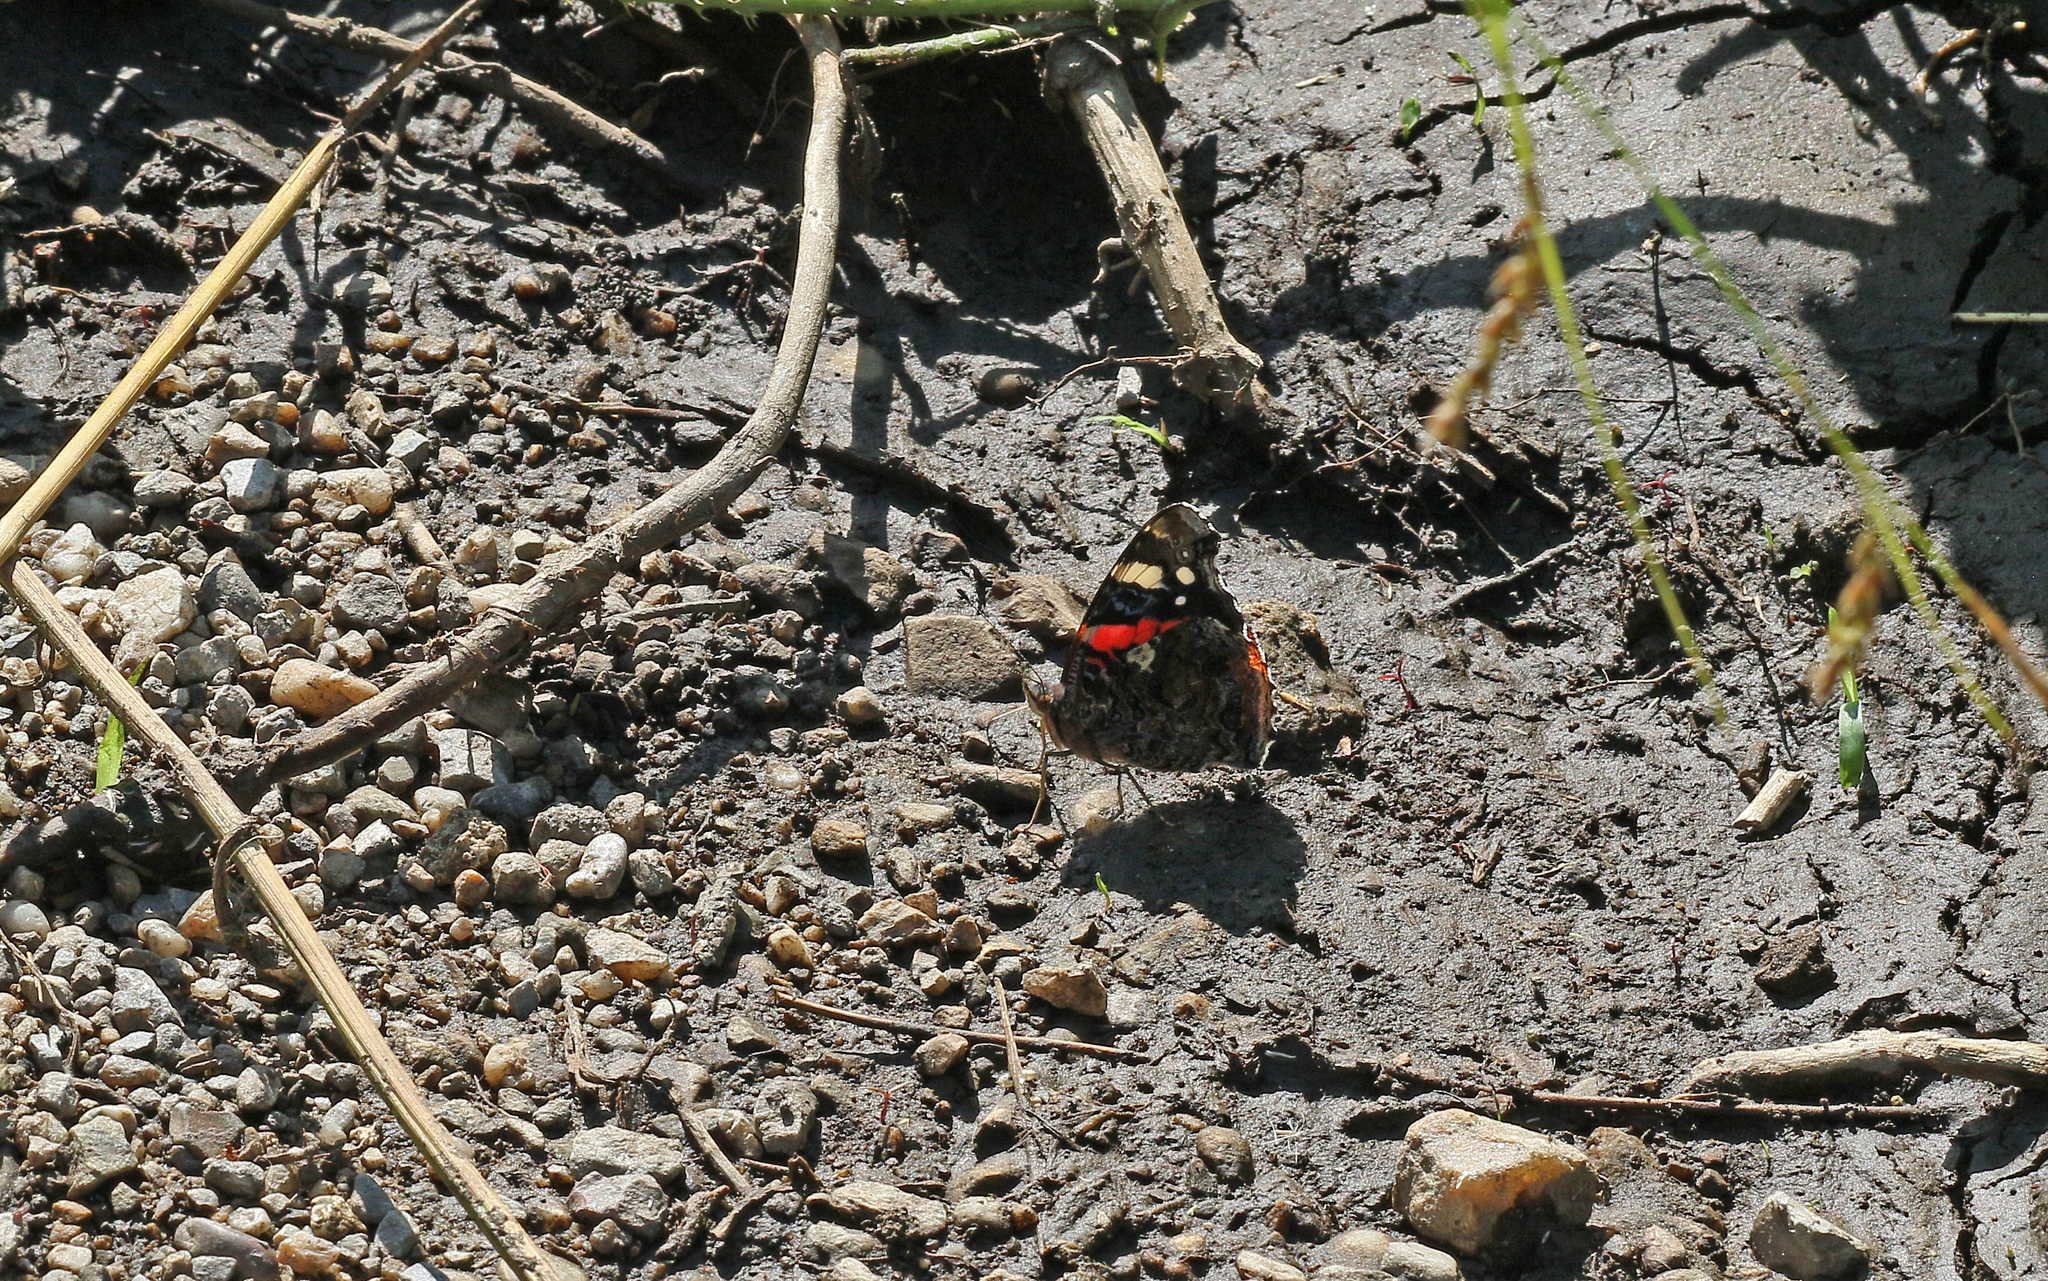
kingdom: Animalia
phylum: Arthropoda
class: Insecta
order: Lepidoptera
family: Nymphalidae
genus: Vanessa
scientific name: Vanessa atalanta
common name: Red admiral
